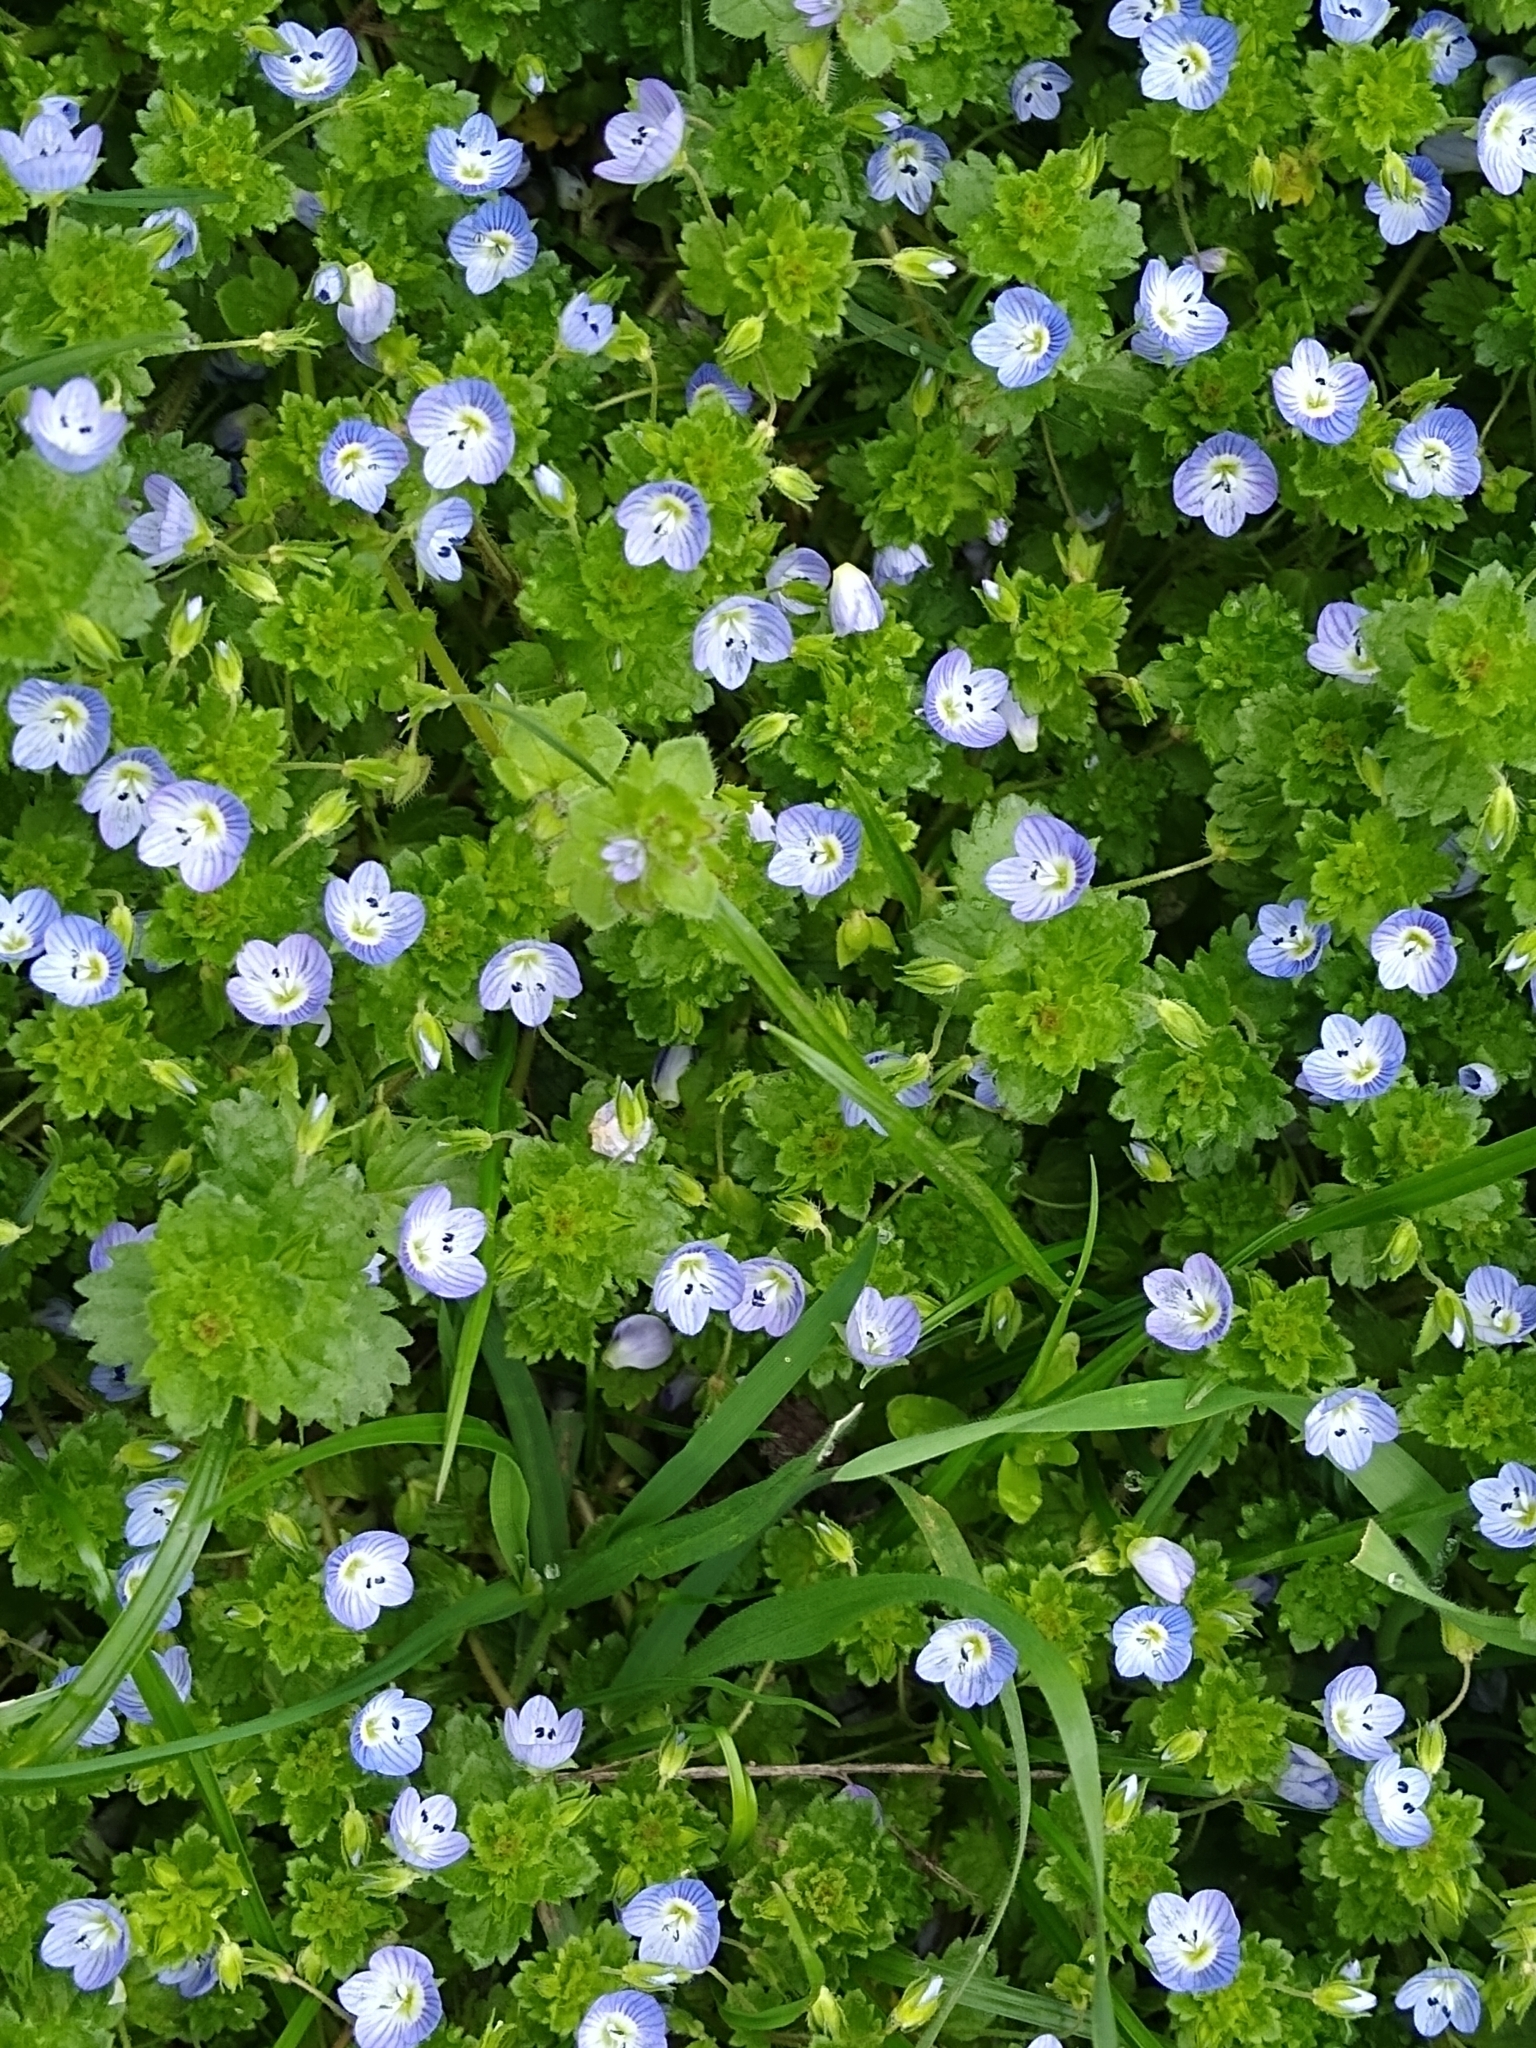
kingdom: Plantae
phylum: Tracheophyta
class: Magnoliopsida
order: Lamiales
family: Plantaginaceae
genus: Veronica
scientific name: Veronica persica
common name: Common field-speedwell
